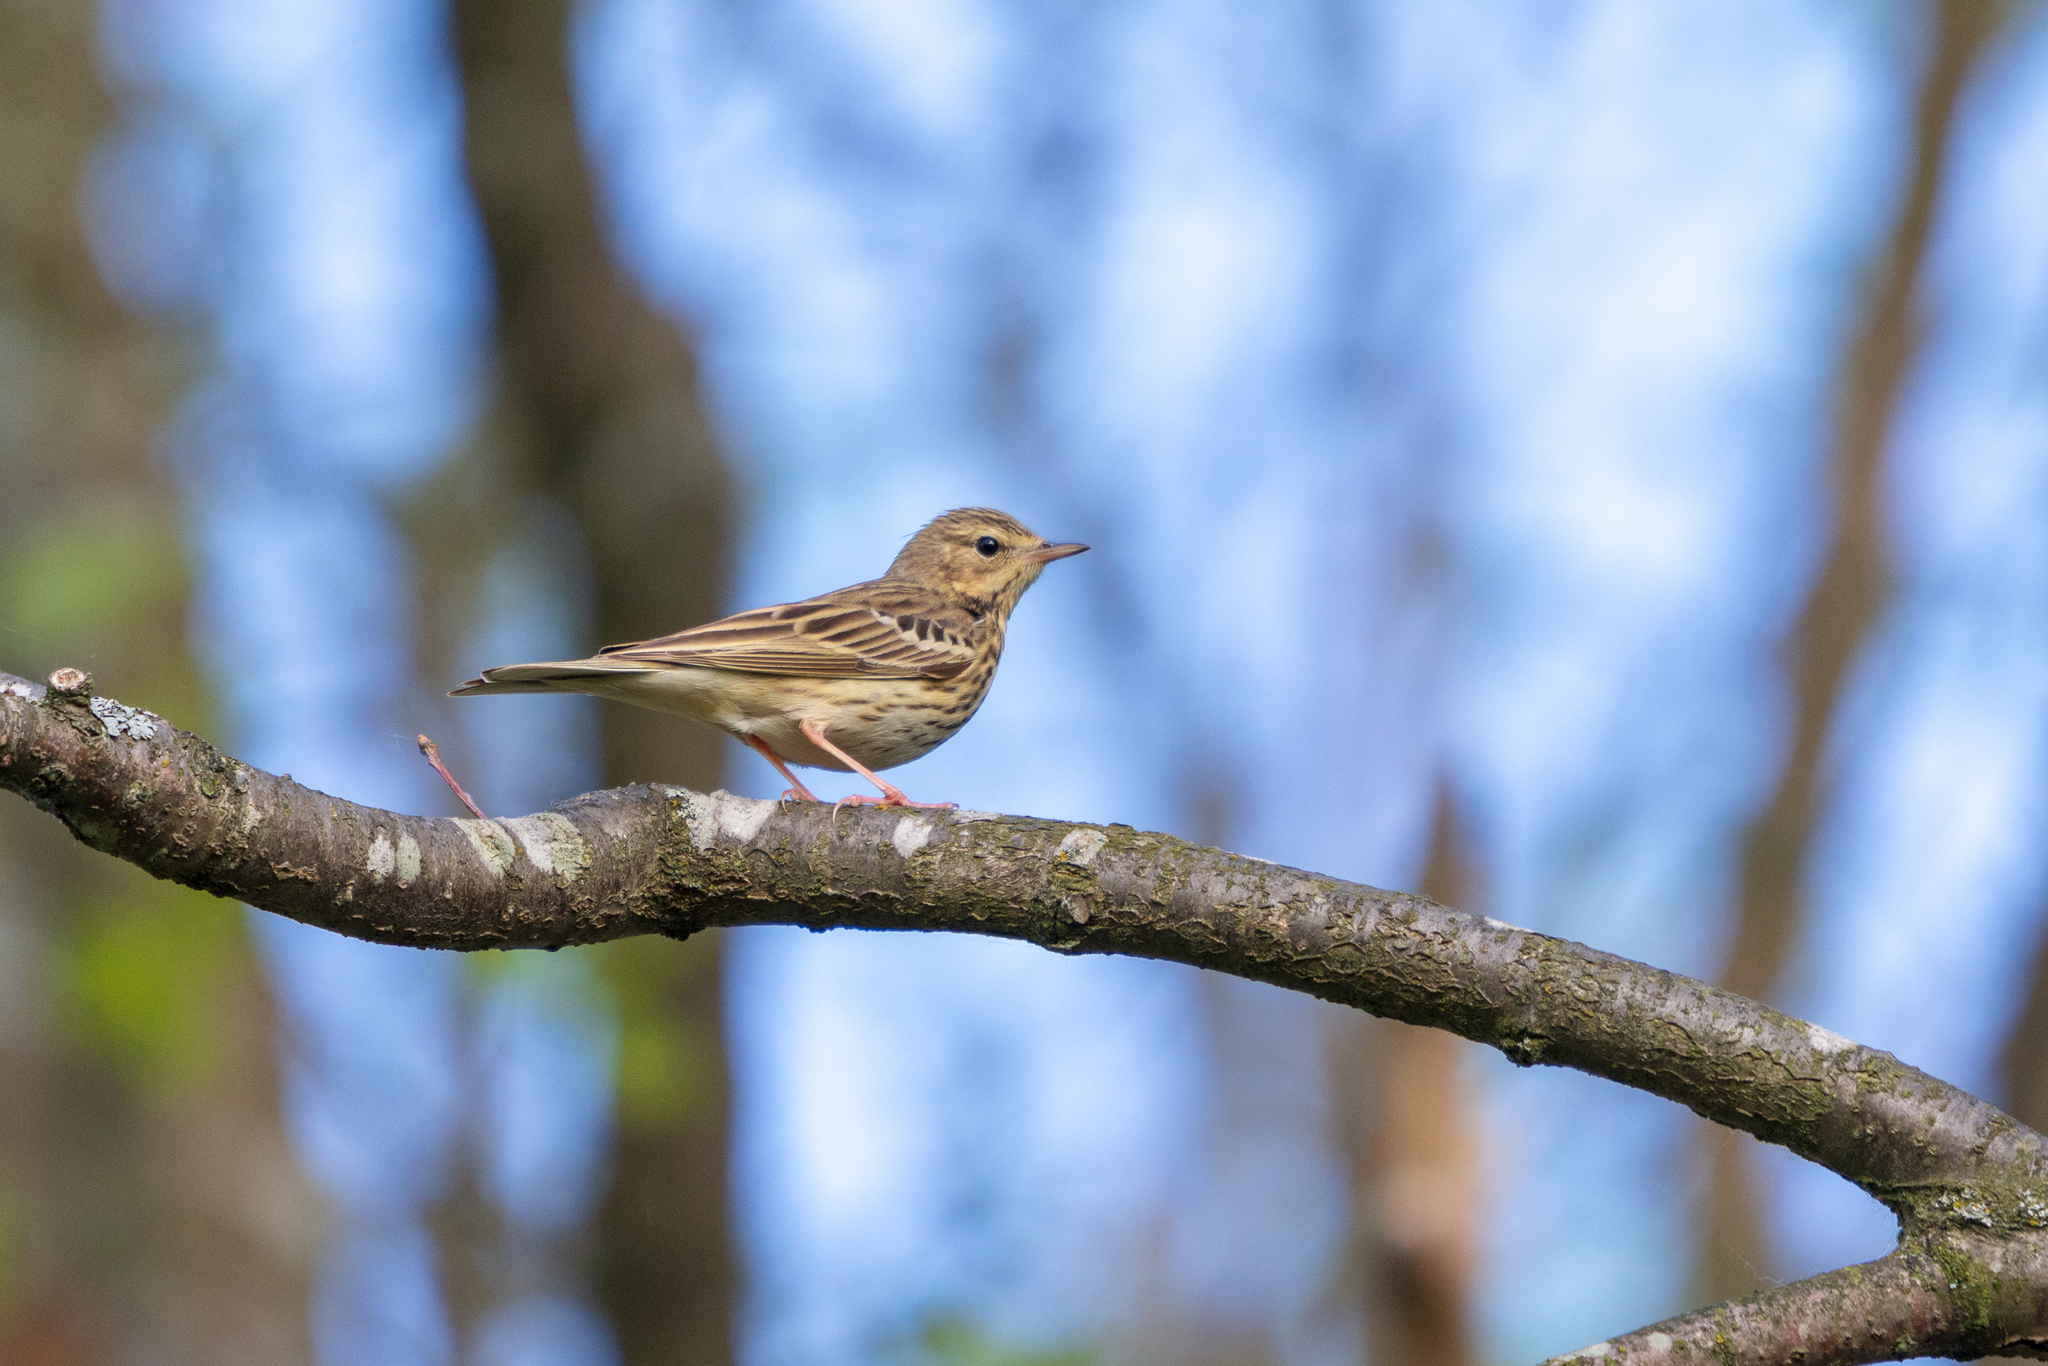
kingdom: Animalia
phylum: Chordata
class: Aves
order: Passeriformes
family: Motacillidae
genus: Anthus
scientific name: Anthus trivialis
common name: Tree pipit
